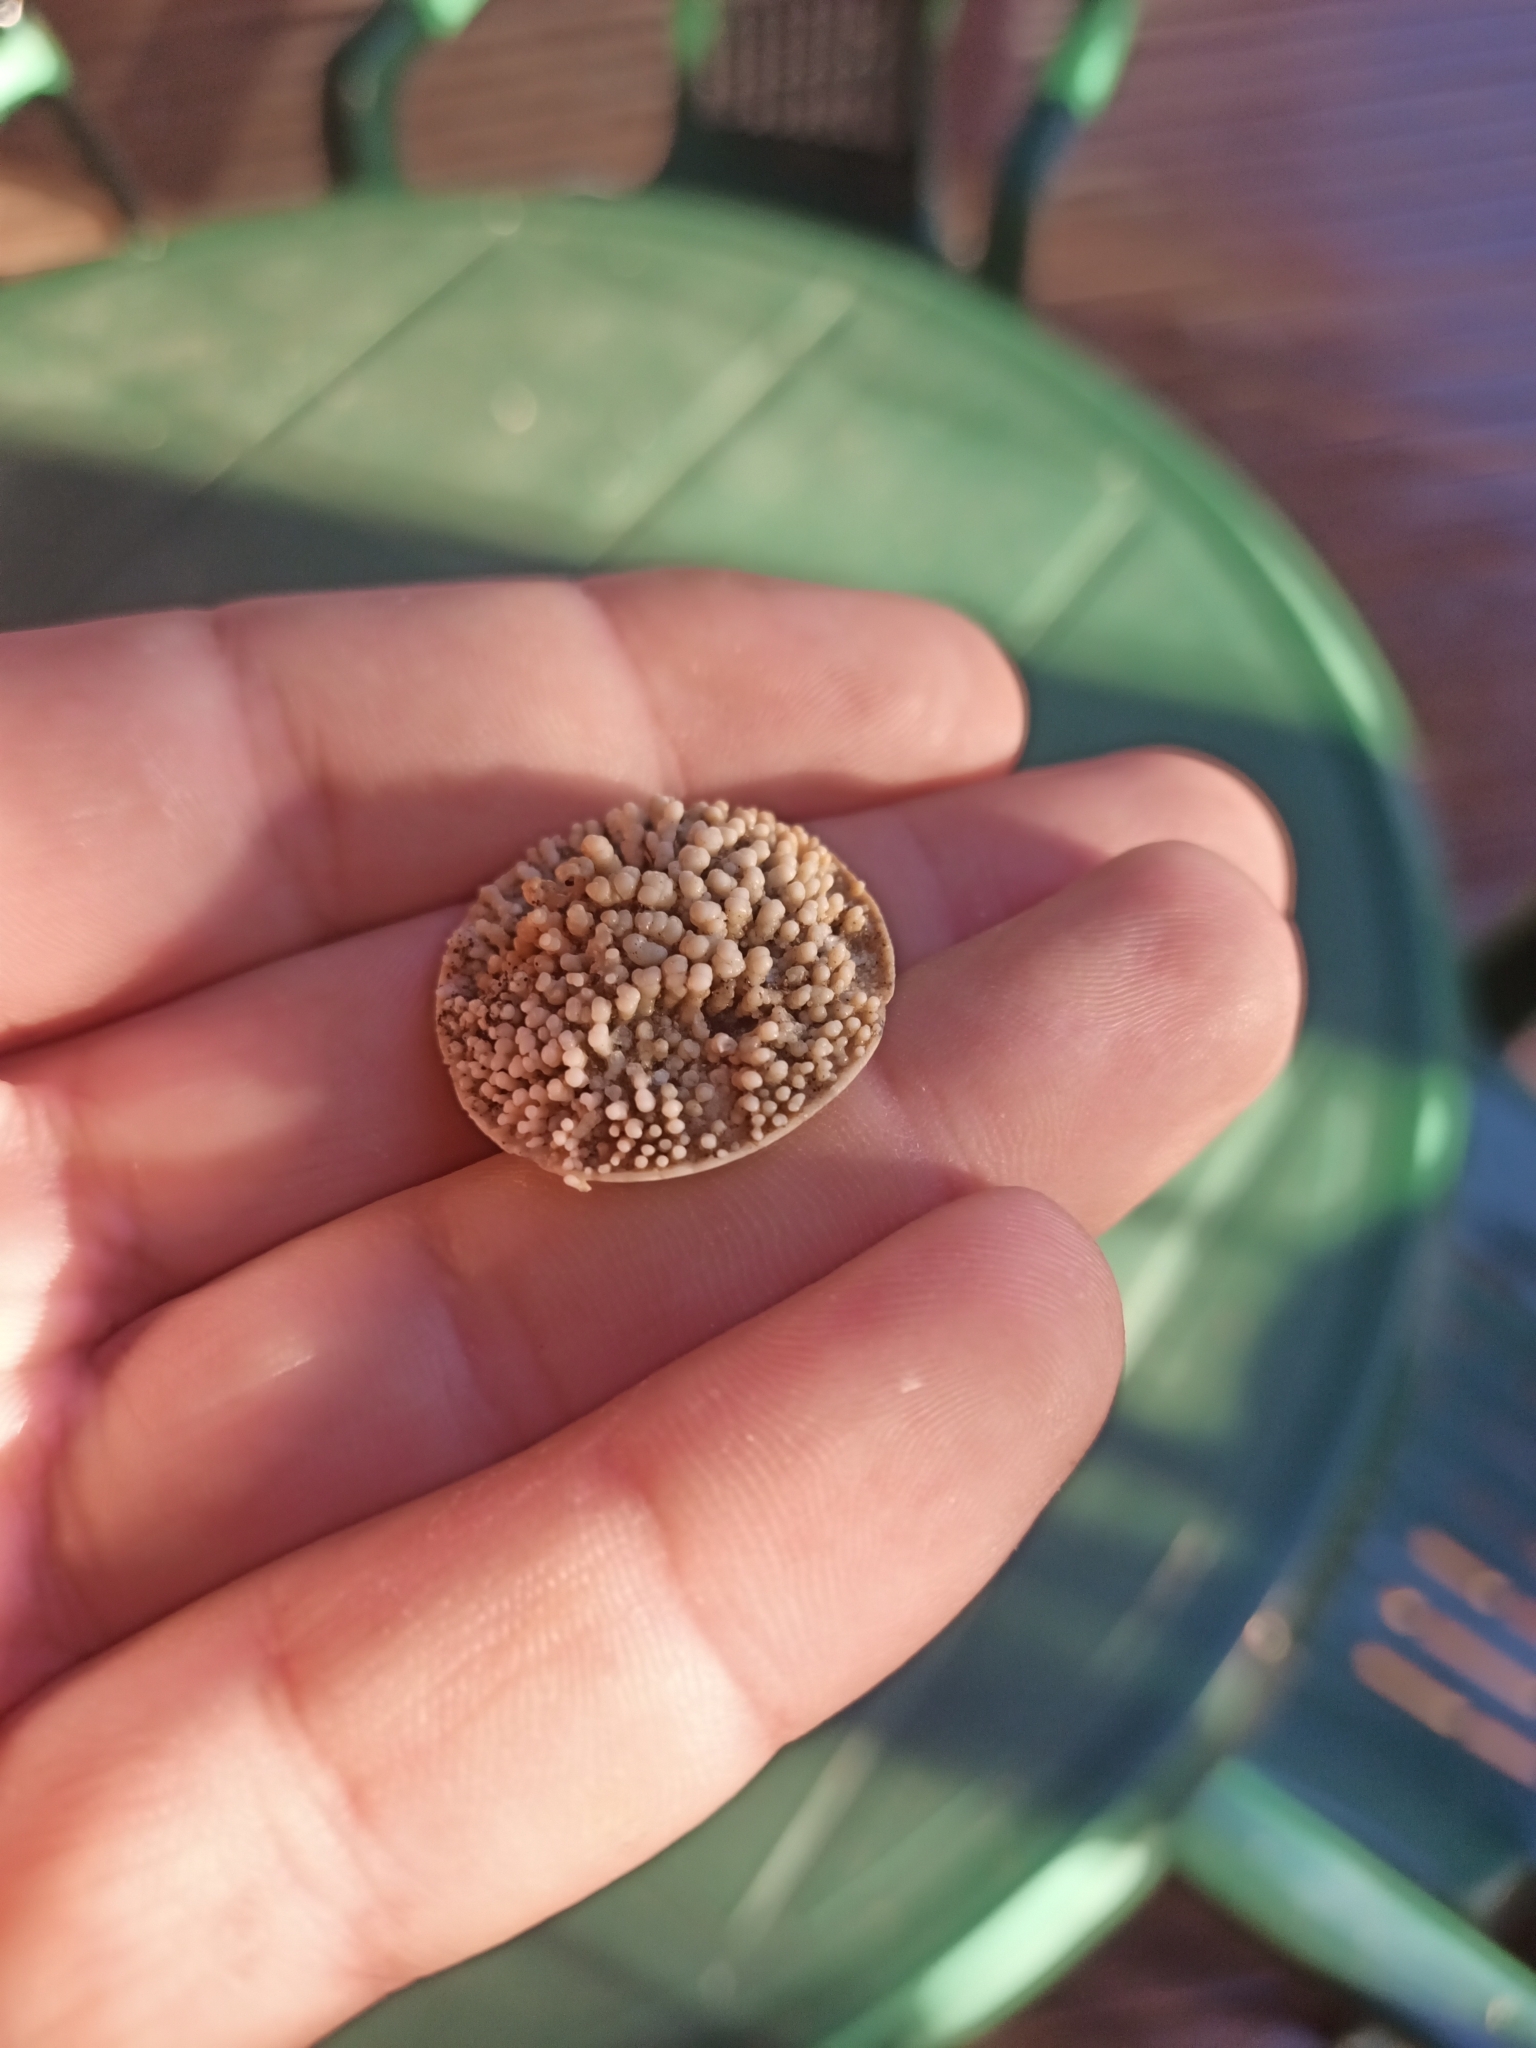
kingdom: Animalia
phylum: Mollusca
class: Gastropoda
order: Trochida
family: Turbinidae
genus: Turbo
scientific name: Turbo sarmaticus
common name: South african turban
